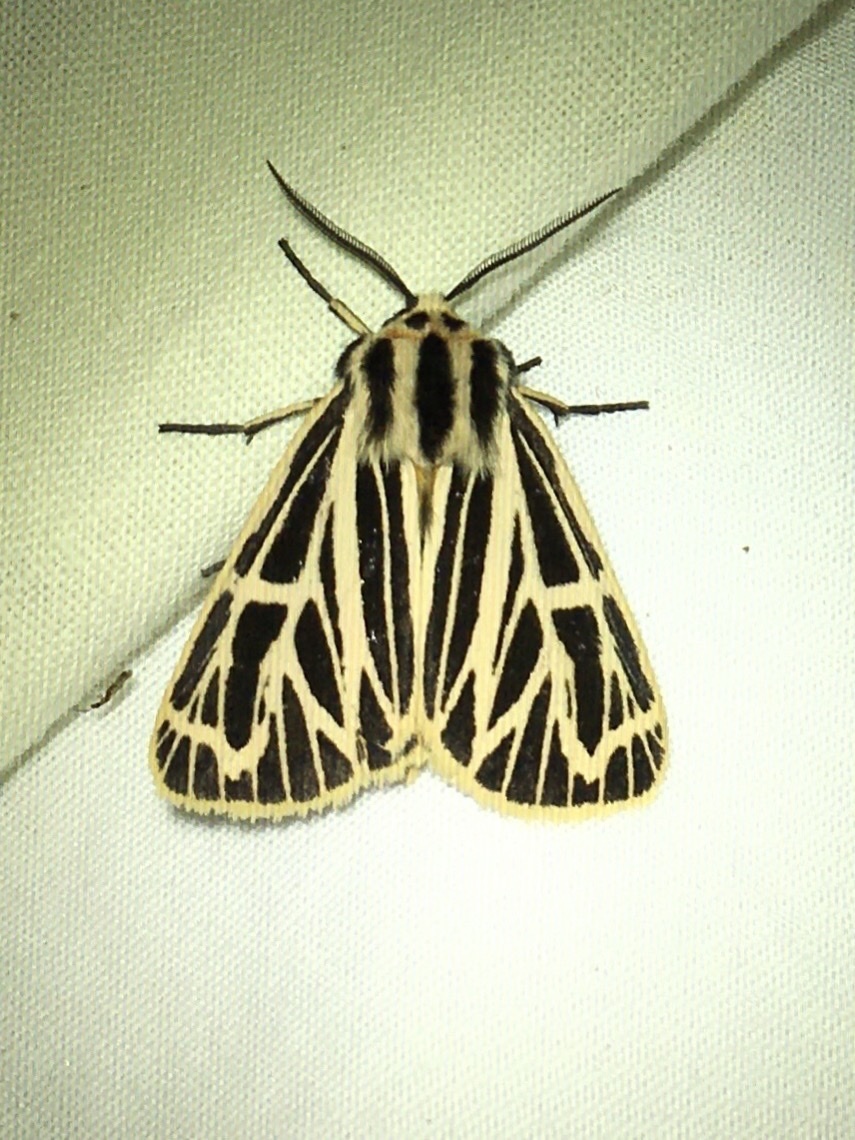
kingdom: Animalia
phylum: Arthropoda
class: Insecta
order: Lepidoptera
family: Erebidae
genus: Grammia
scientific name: Grammia virguncula
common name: Little tiger moth
